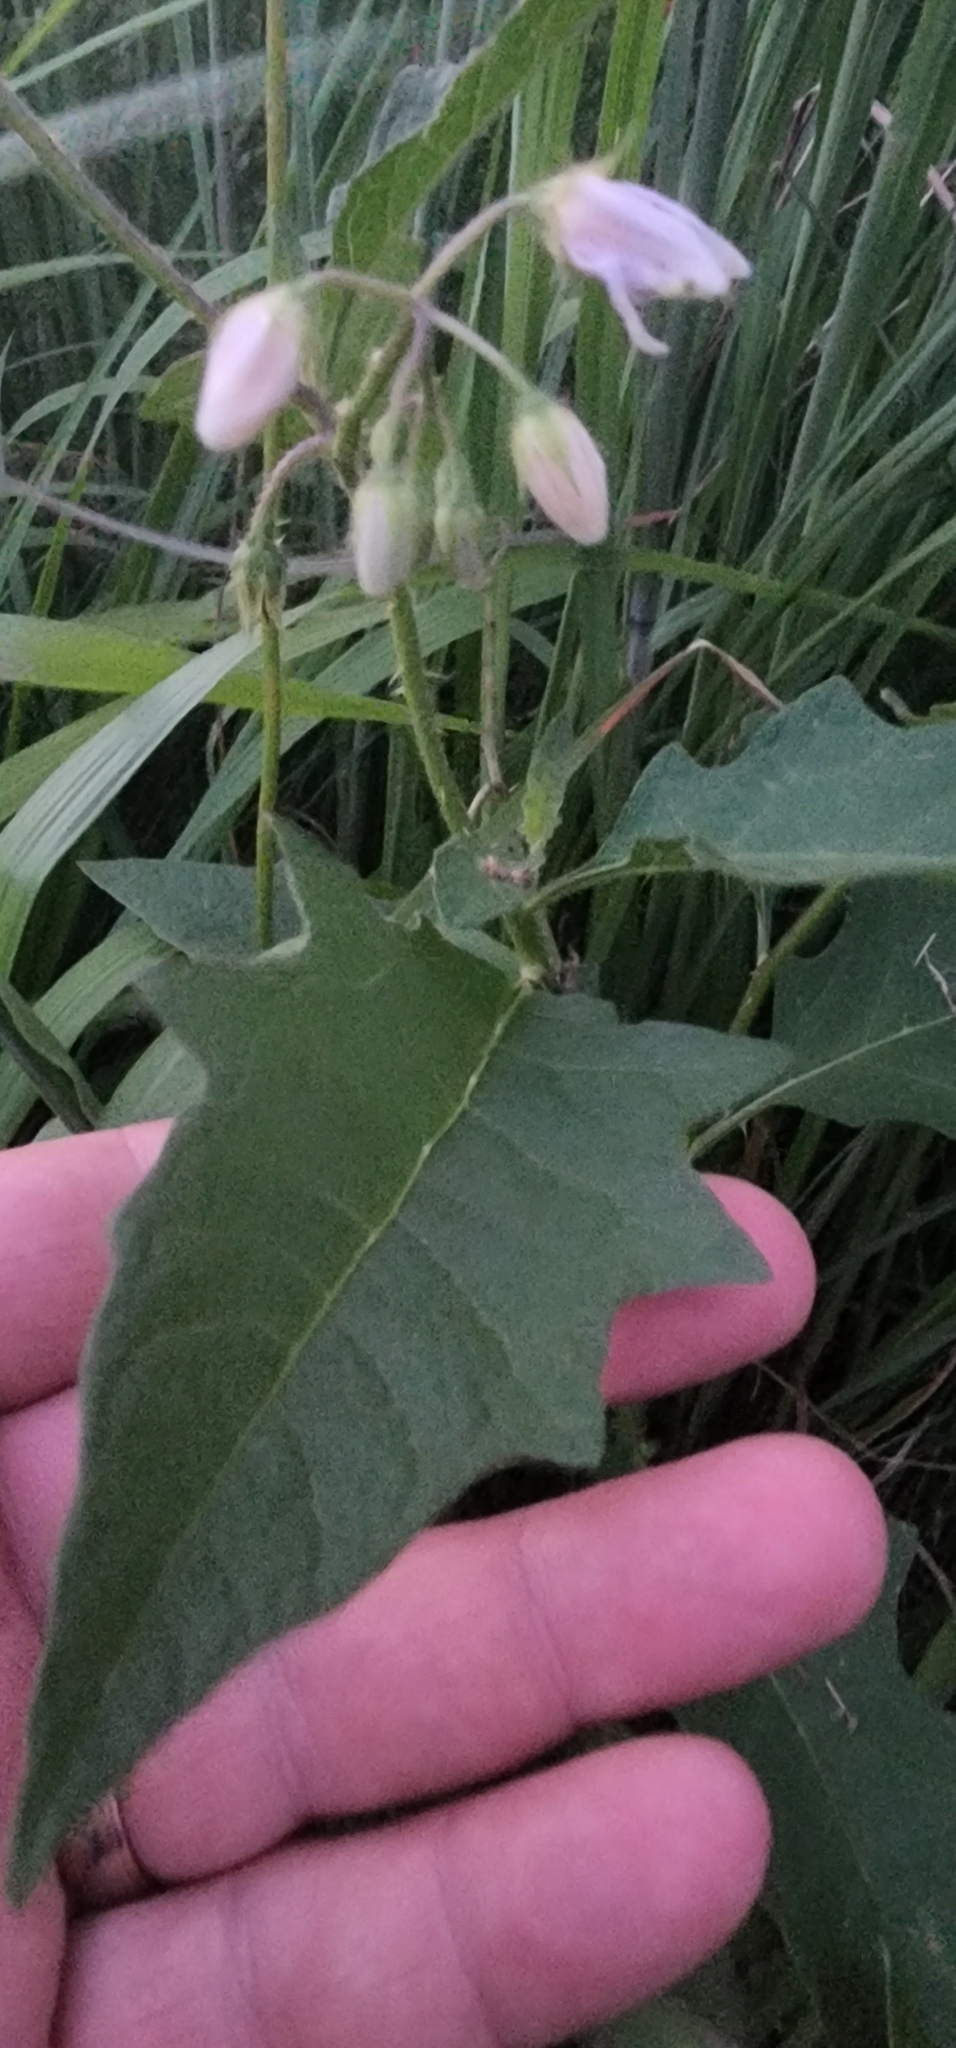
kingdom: Plantae
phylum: Tracheophyta
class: Magnoliopsida
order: Solanales
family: Solanaceae
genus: Solanum
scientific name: Solanum carolinense
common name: Horse-nettle
